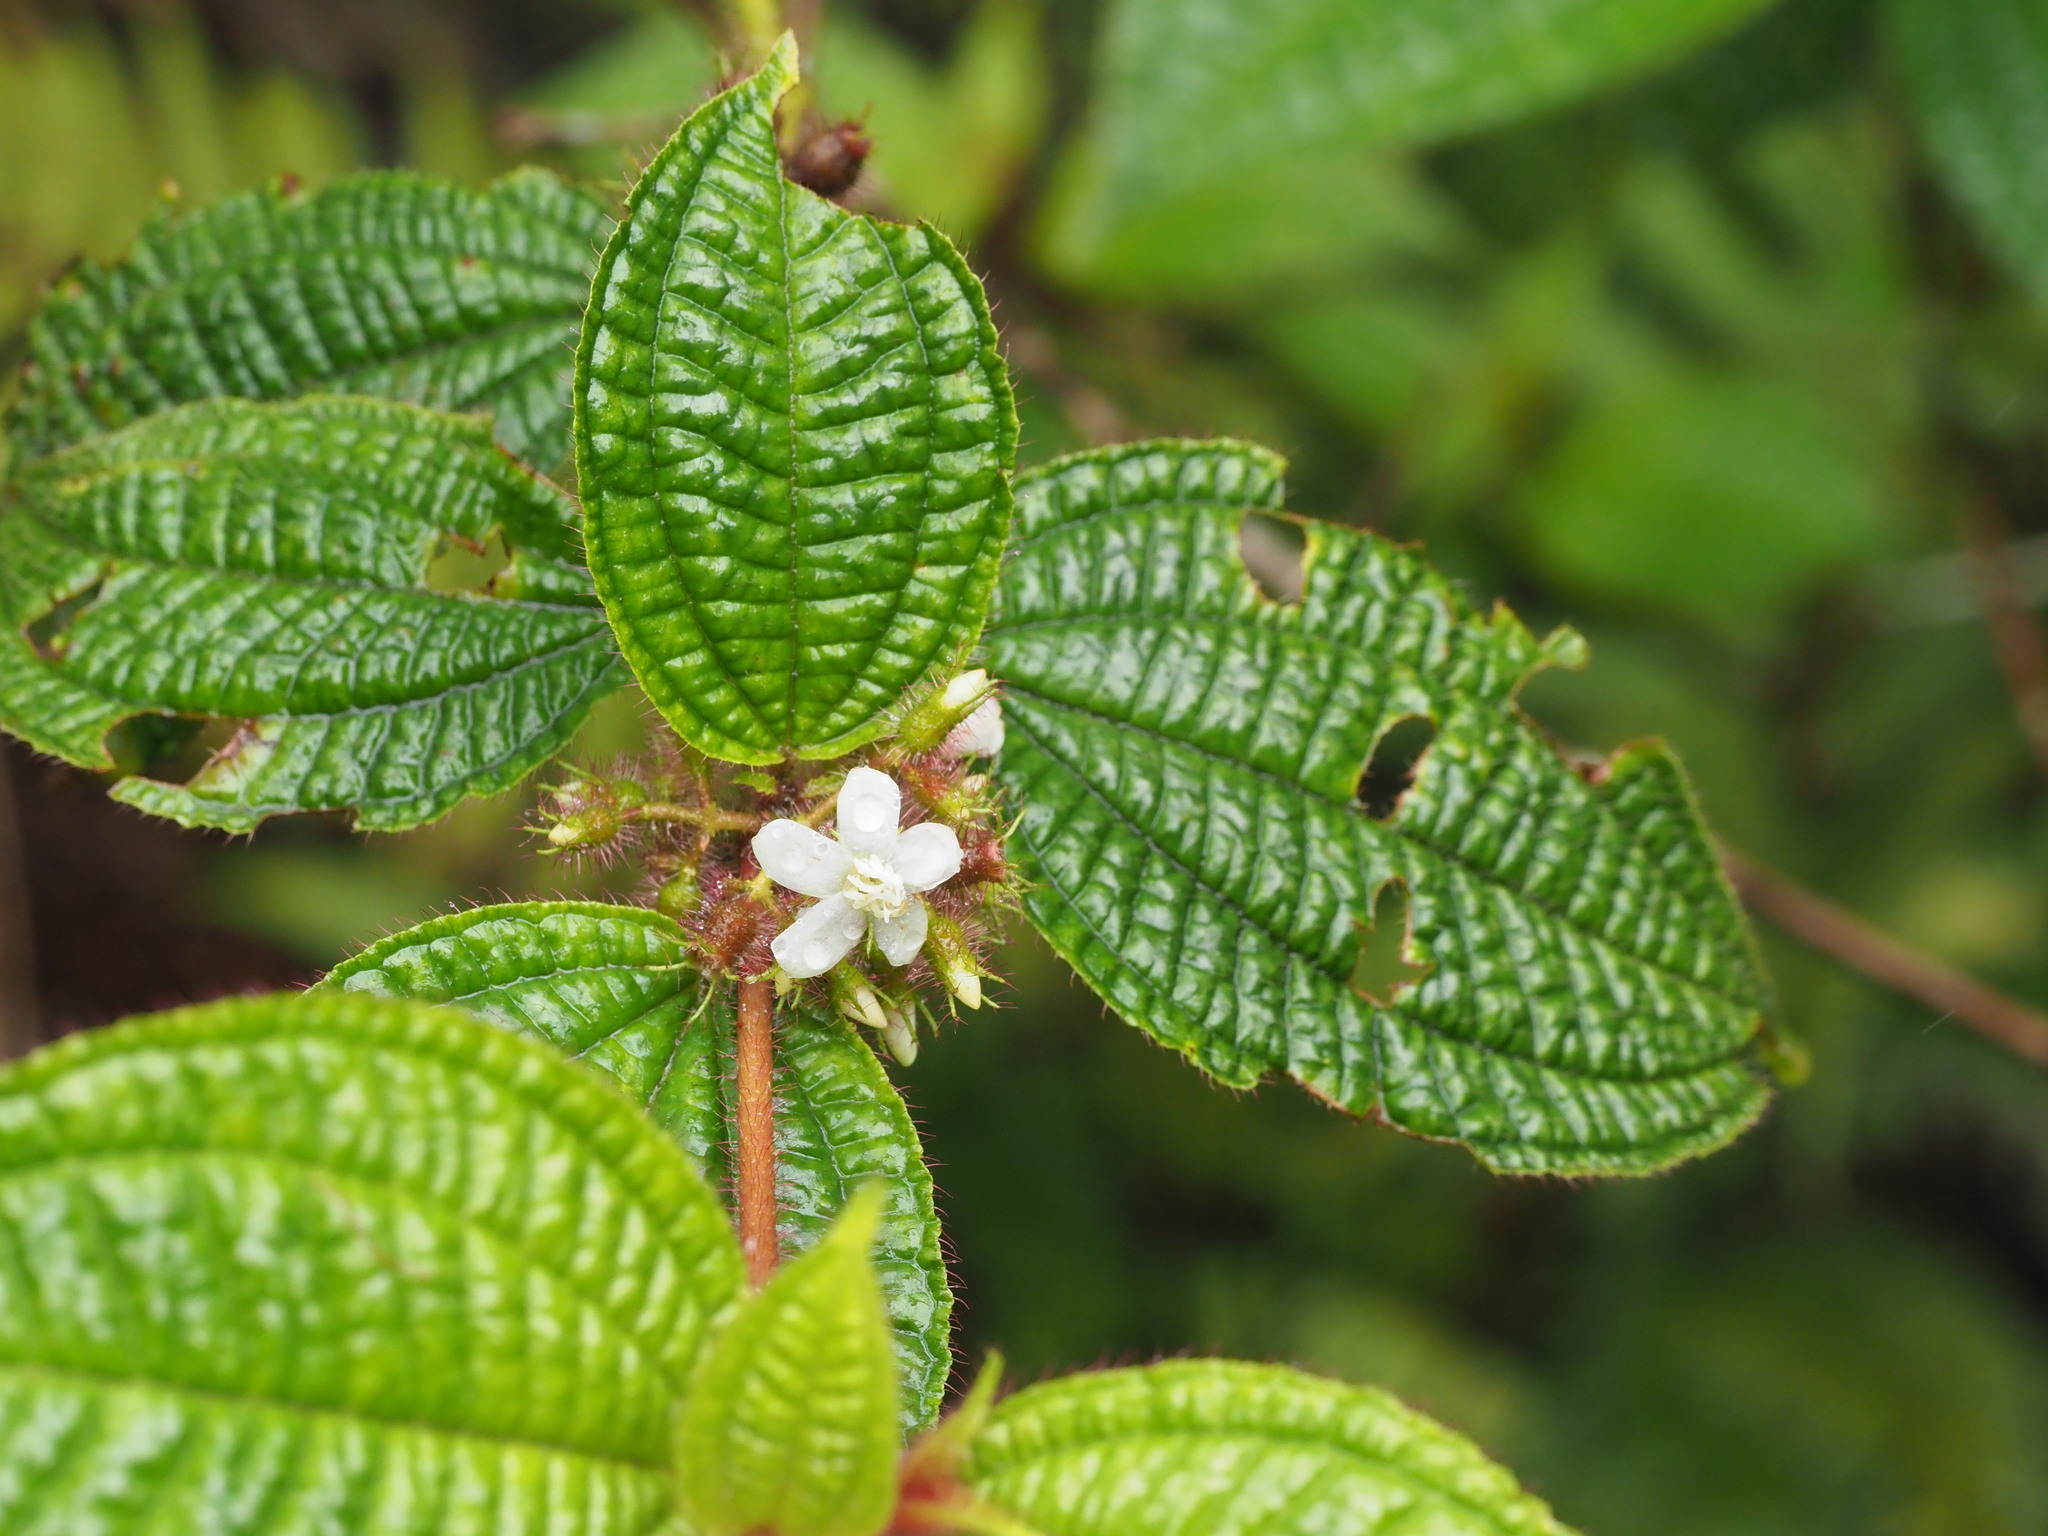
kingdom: Plantae
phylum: Tracheophyta
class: Magnoliopsida
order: Myrtales
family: Melastomataceae
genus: Miconia
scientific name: Miconia crenata
